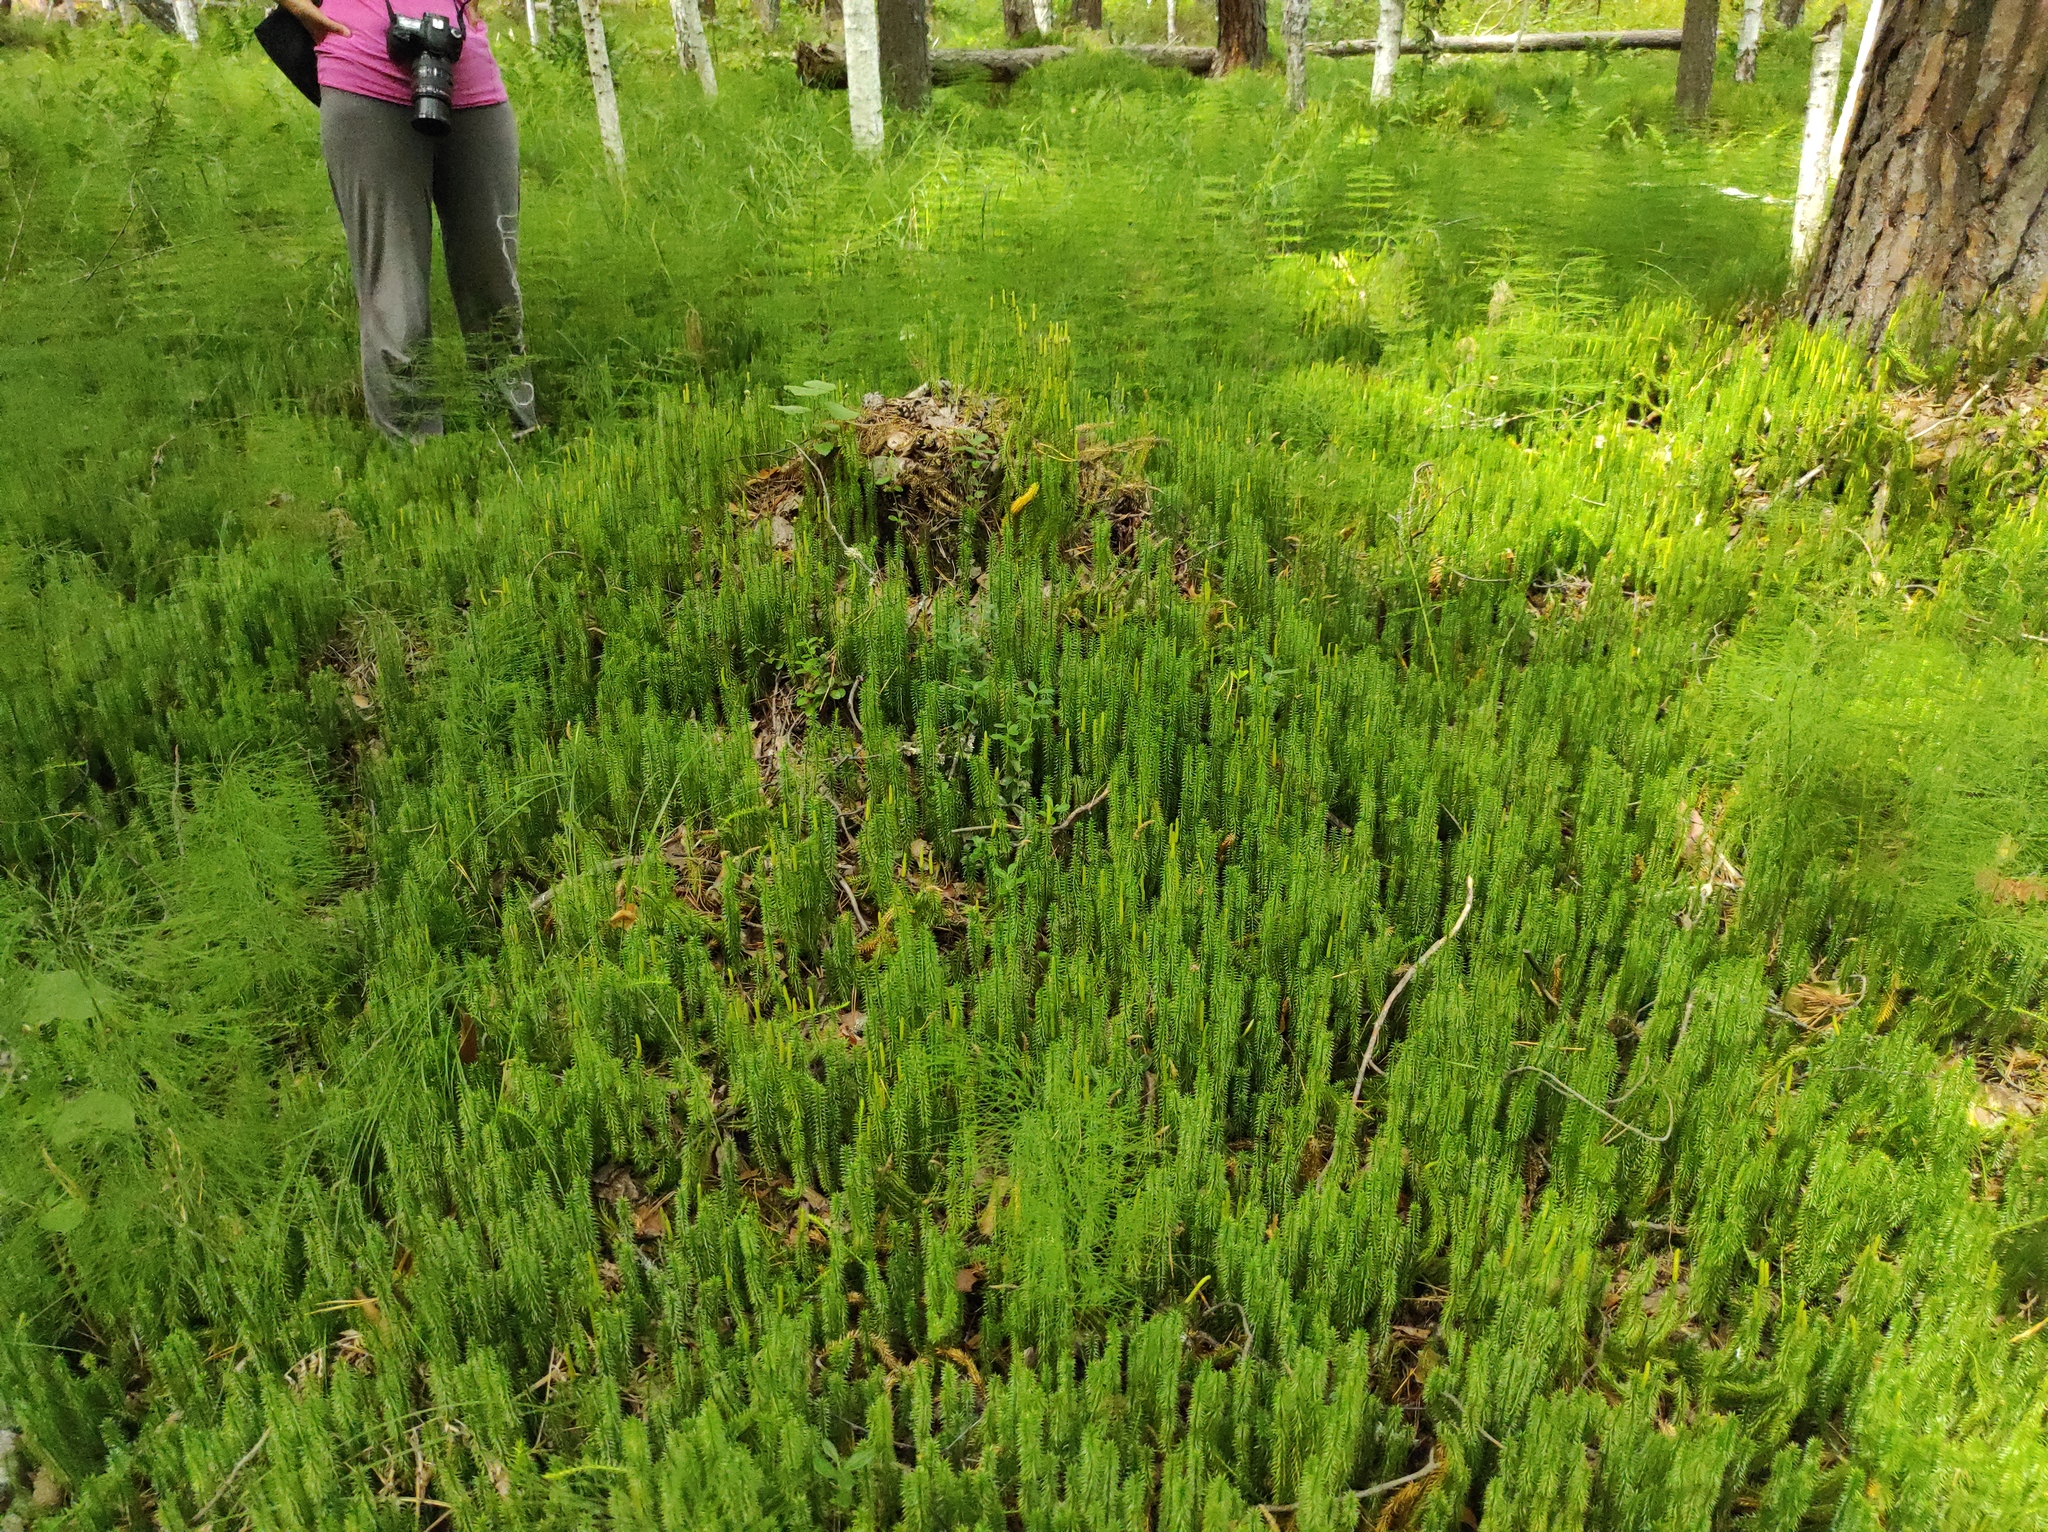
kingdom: Plantae
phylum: Tracheophyta
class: Lycopodiopsida
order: Lycopodiales
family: Lycopodiaceae
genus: Spinulum
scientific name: Spinulum annotinum
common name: Interrupted club-moss
